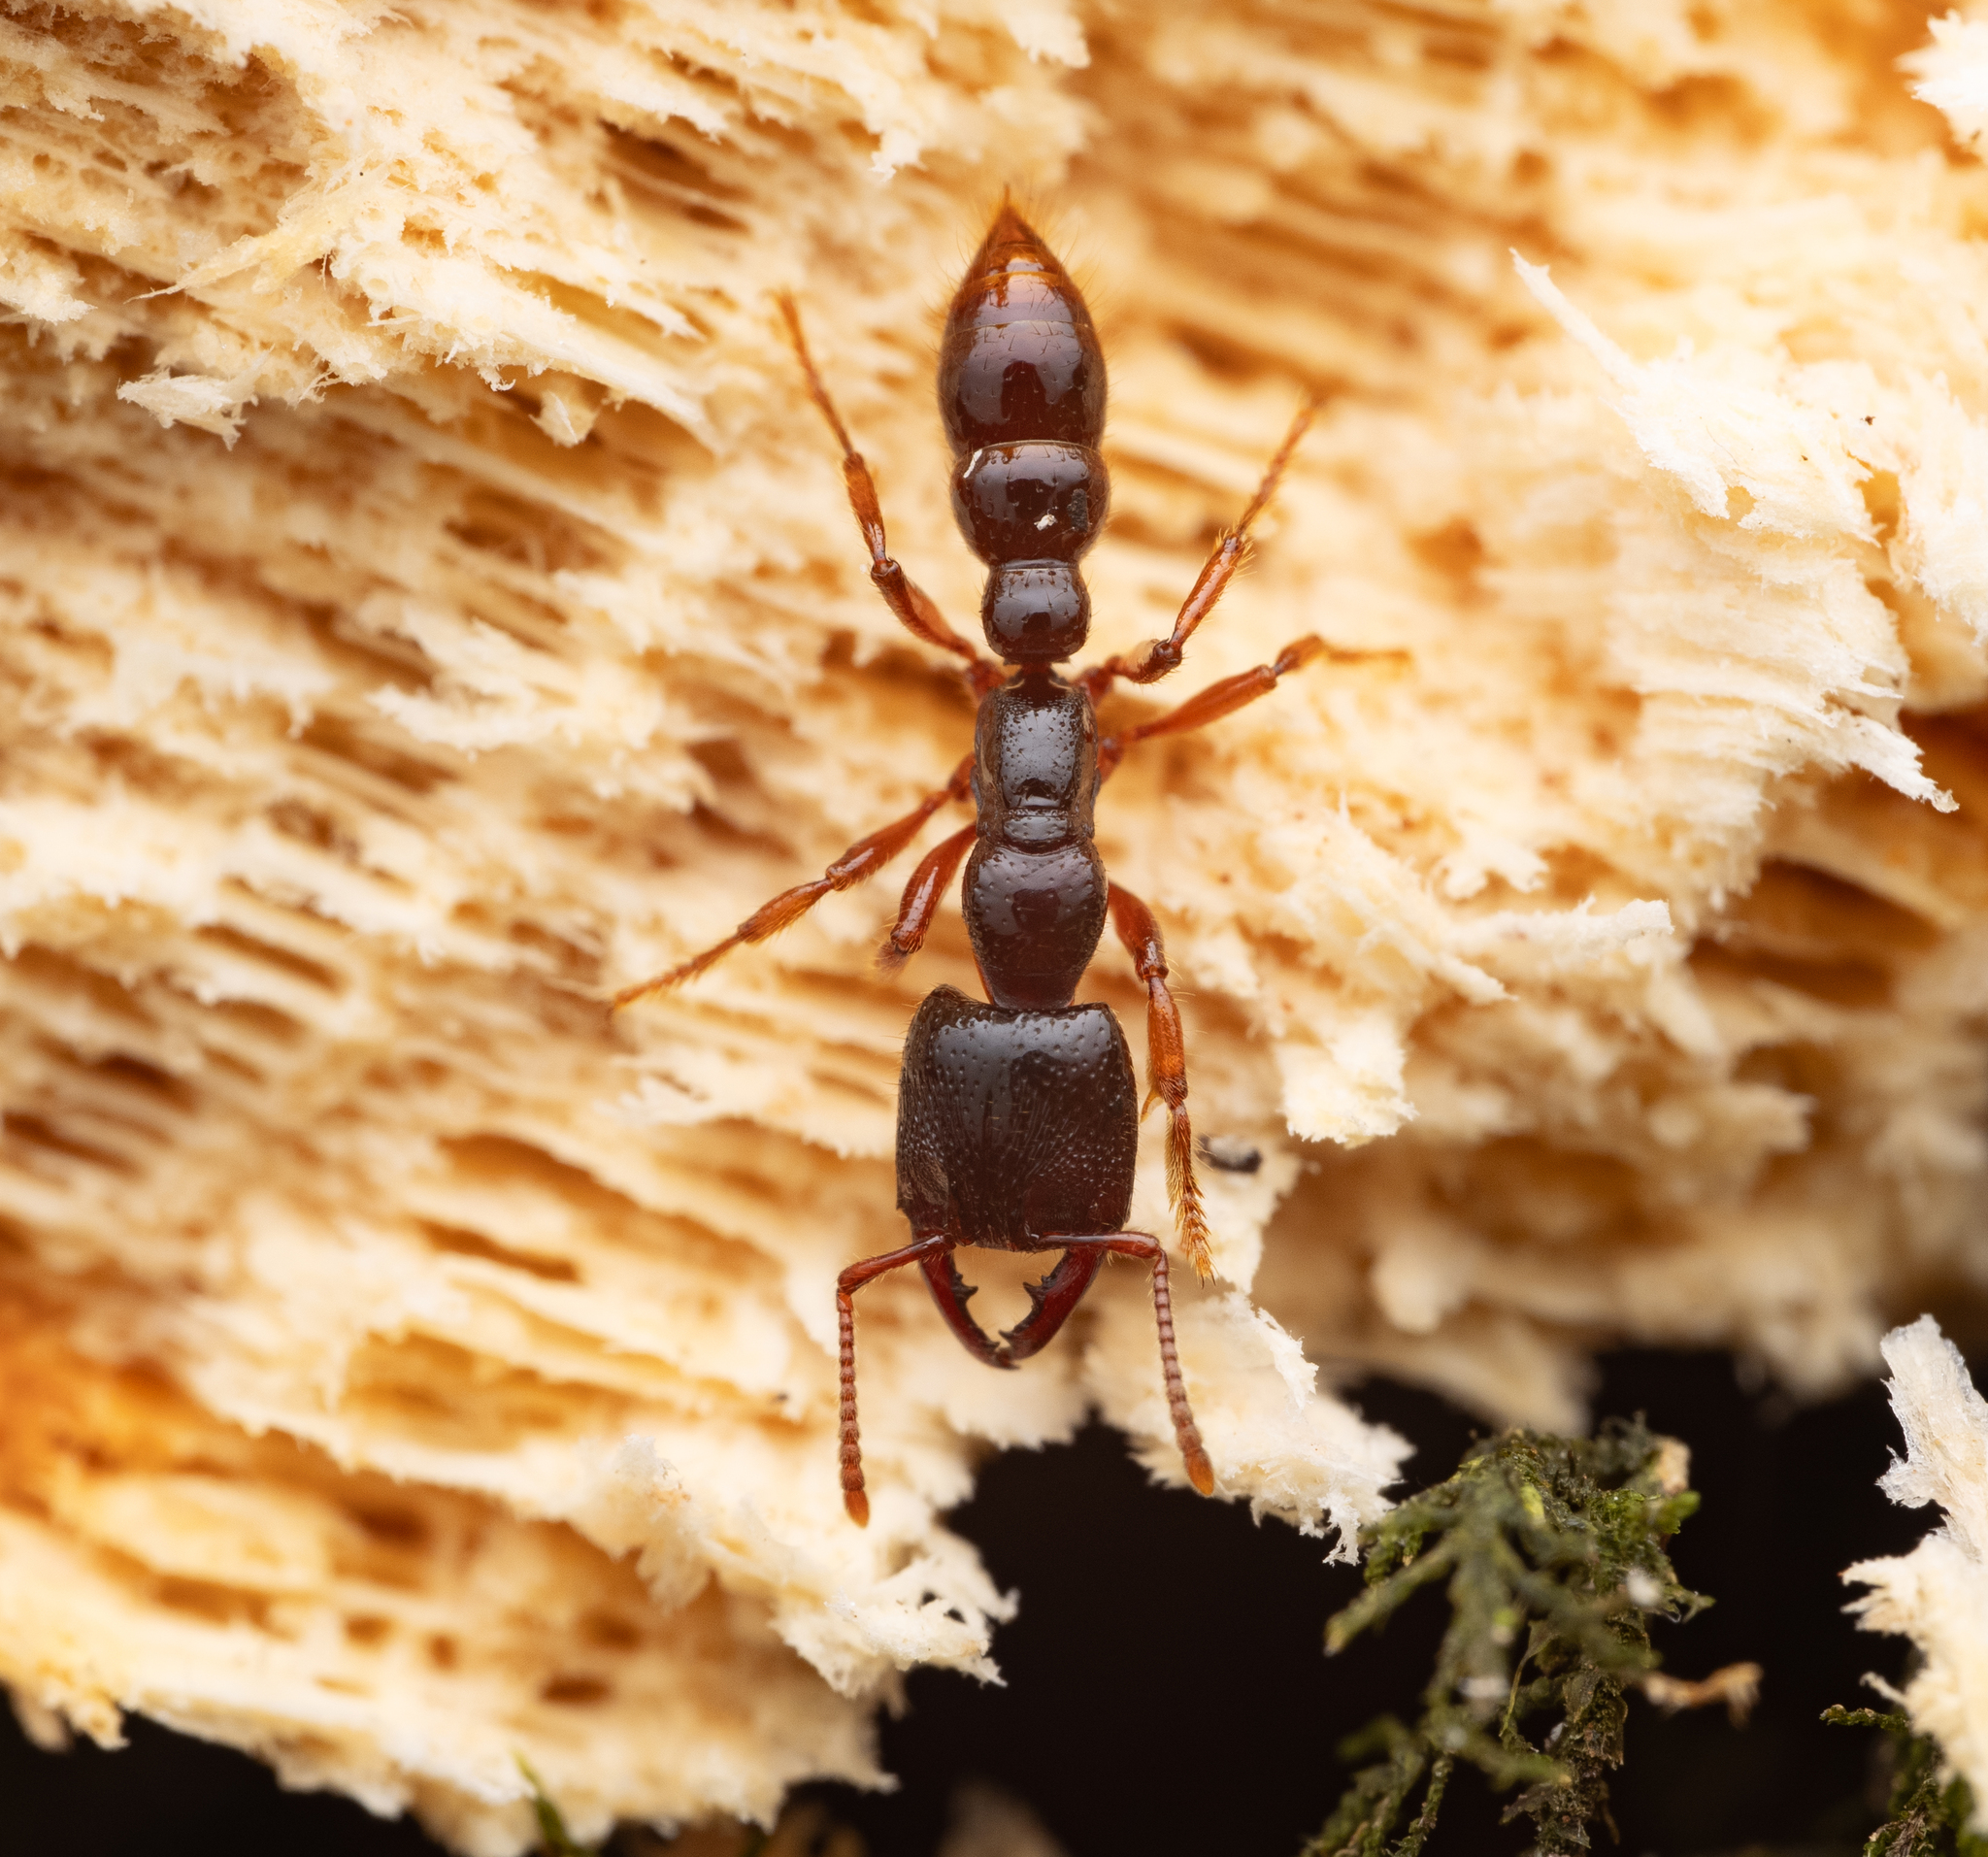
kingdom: Animalia
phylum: Arthropoda
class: Insecta
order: Hymenoptera
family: Formicidae
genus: Amblyopone
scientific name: Amblyopone australis
